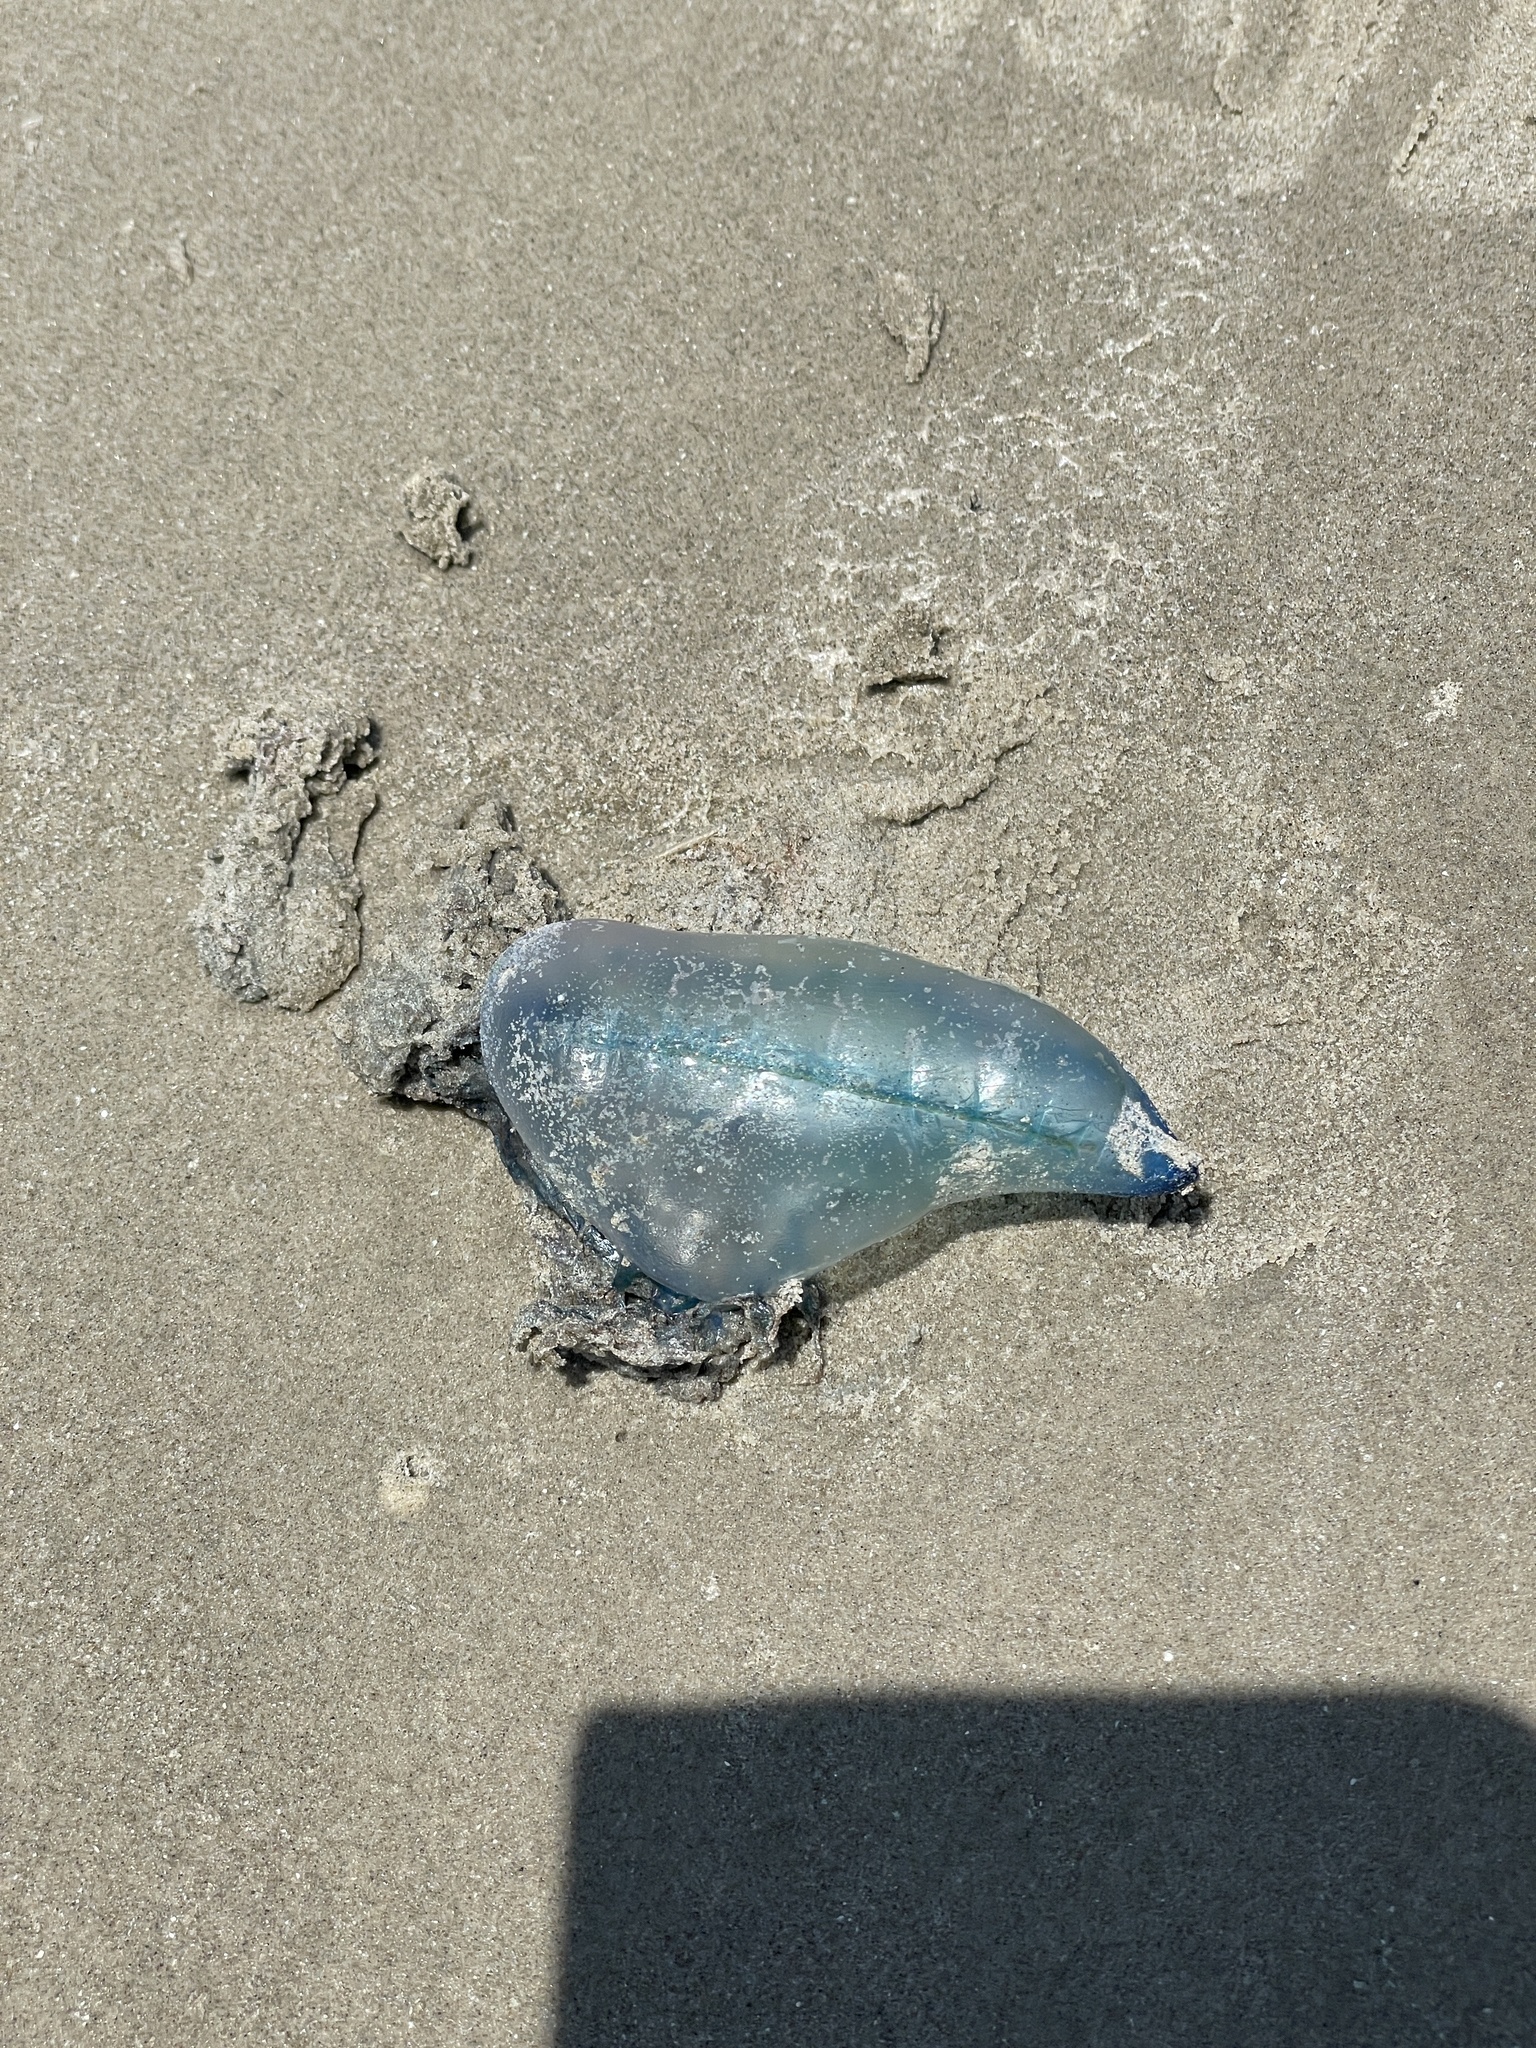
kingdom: Animalia
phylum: Cnidaria
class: Hydrozoa
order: Siphonophorae
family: Physaliidae
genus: Physalia
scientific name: Physalia physalis
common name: Portuguese man-of-war
